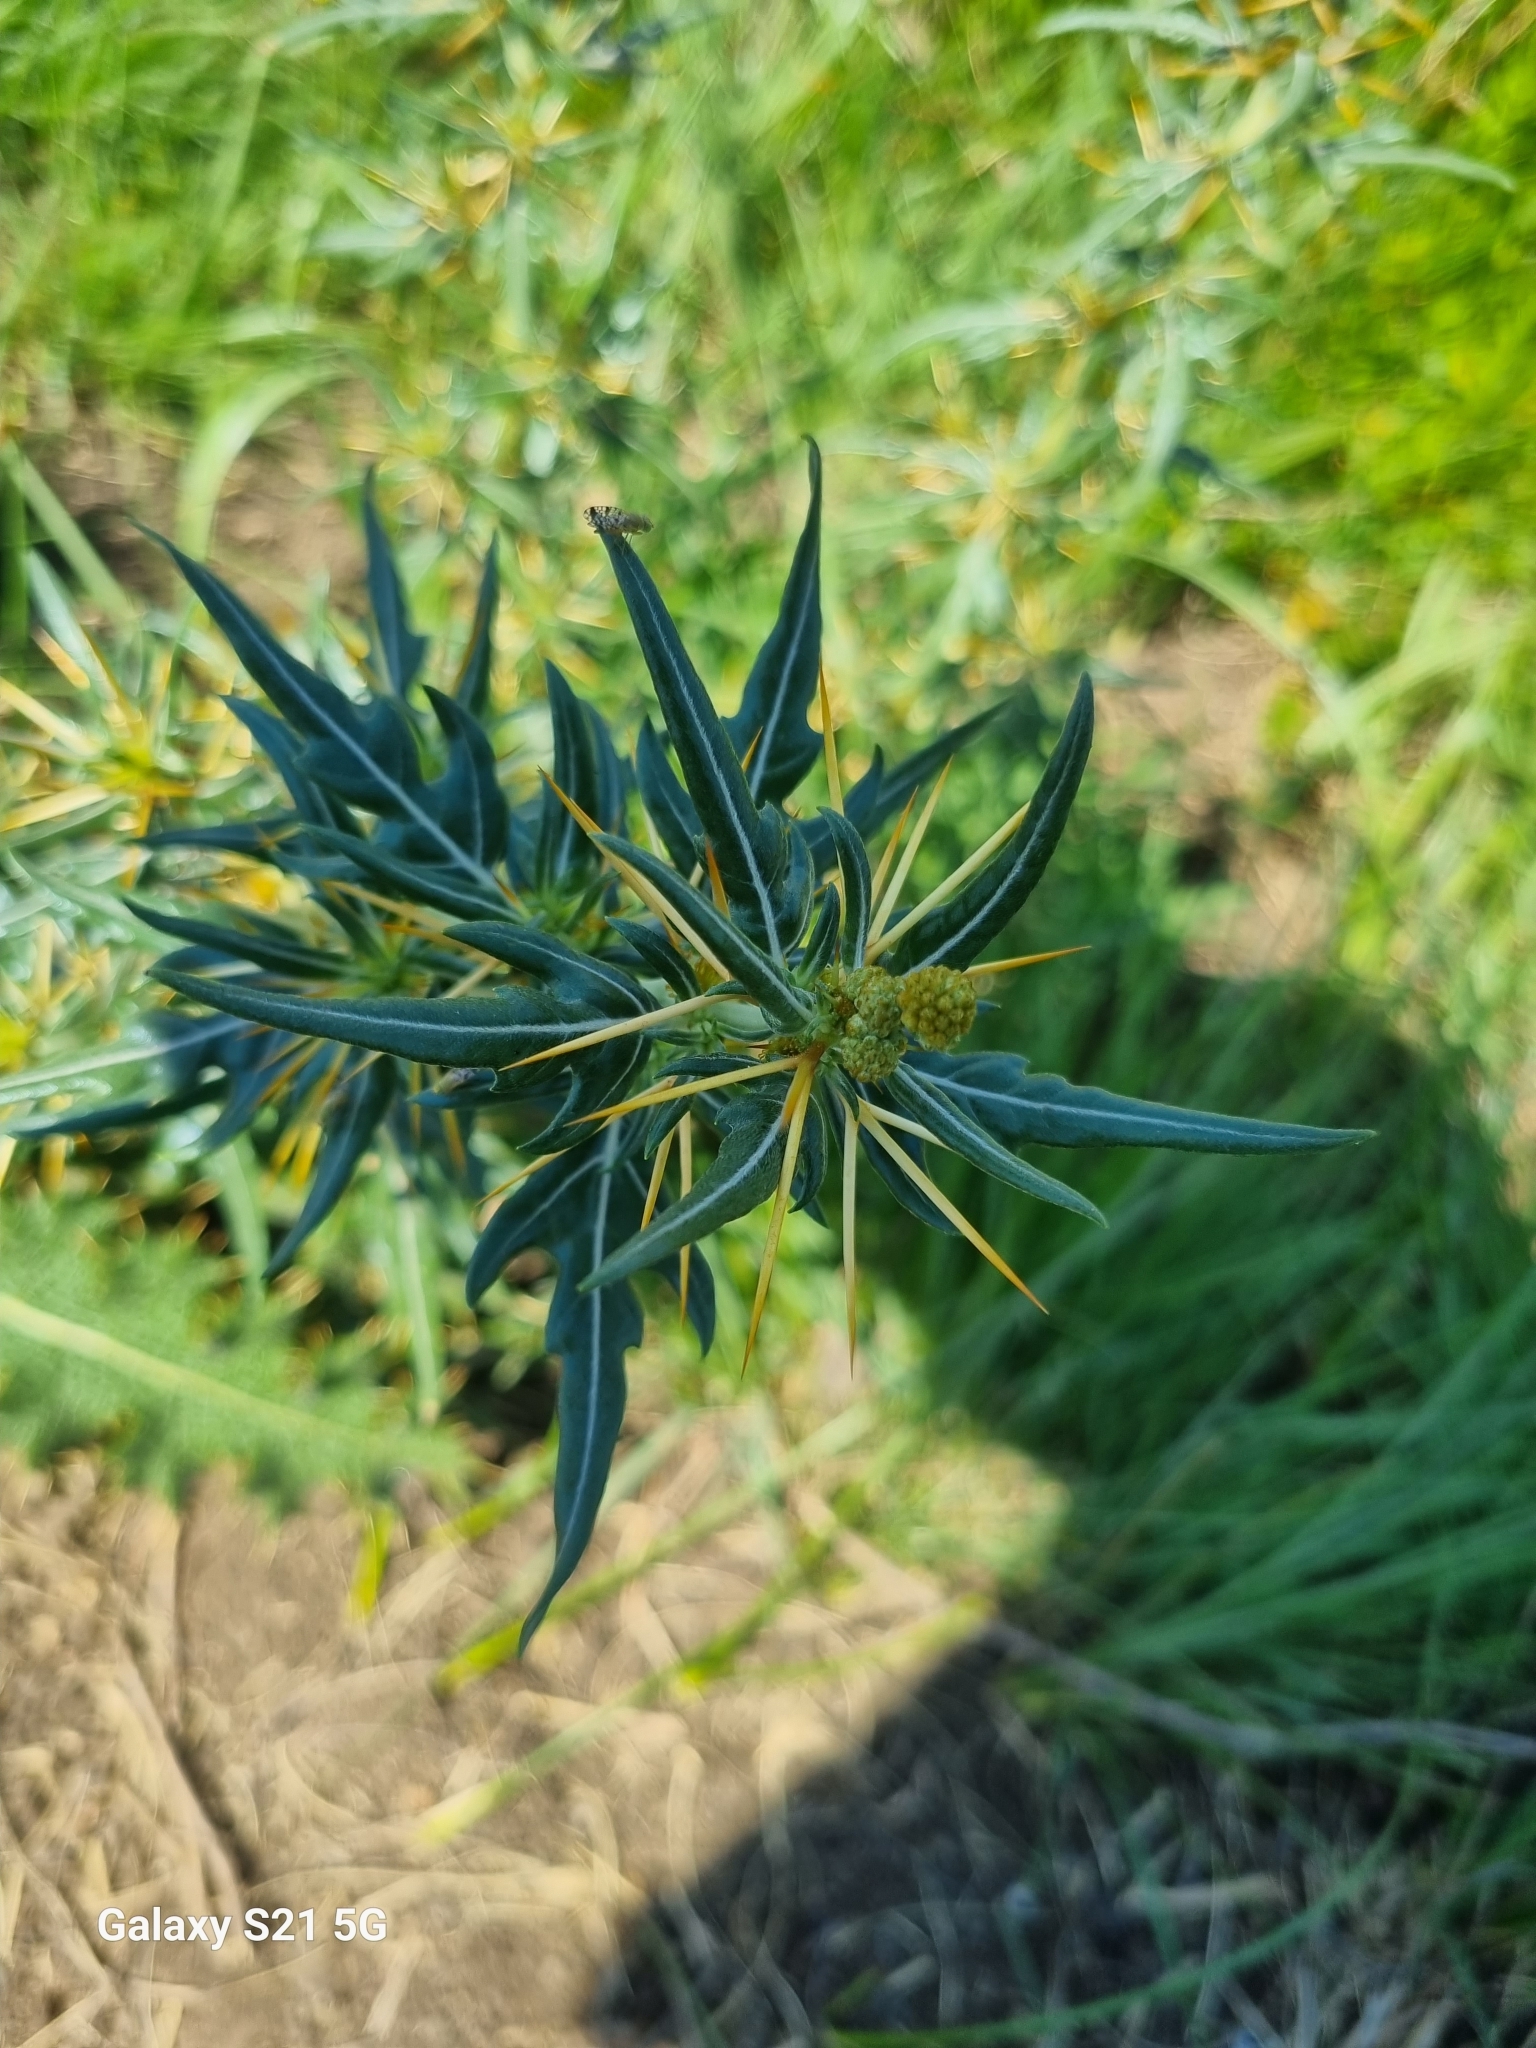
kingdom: Plantae
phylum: Tracheophyta
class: Magnoliopsida
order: Asterales
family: Asteraceae
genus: Xanthium
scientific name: Xanthium spinosum
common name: Spiny cocklebur
